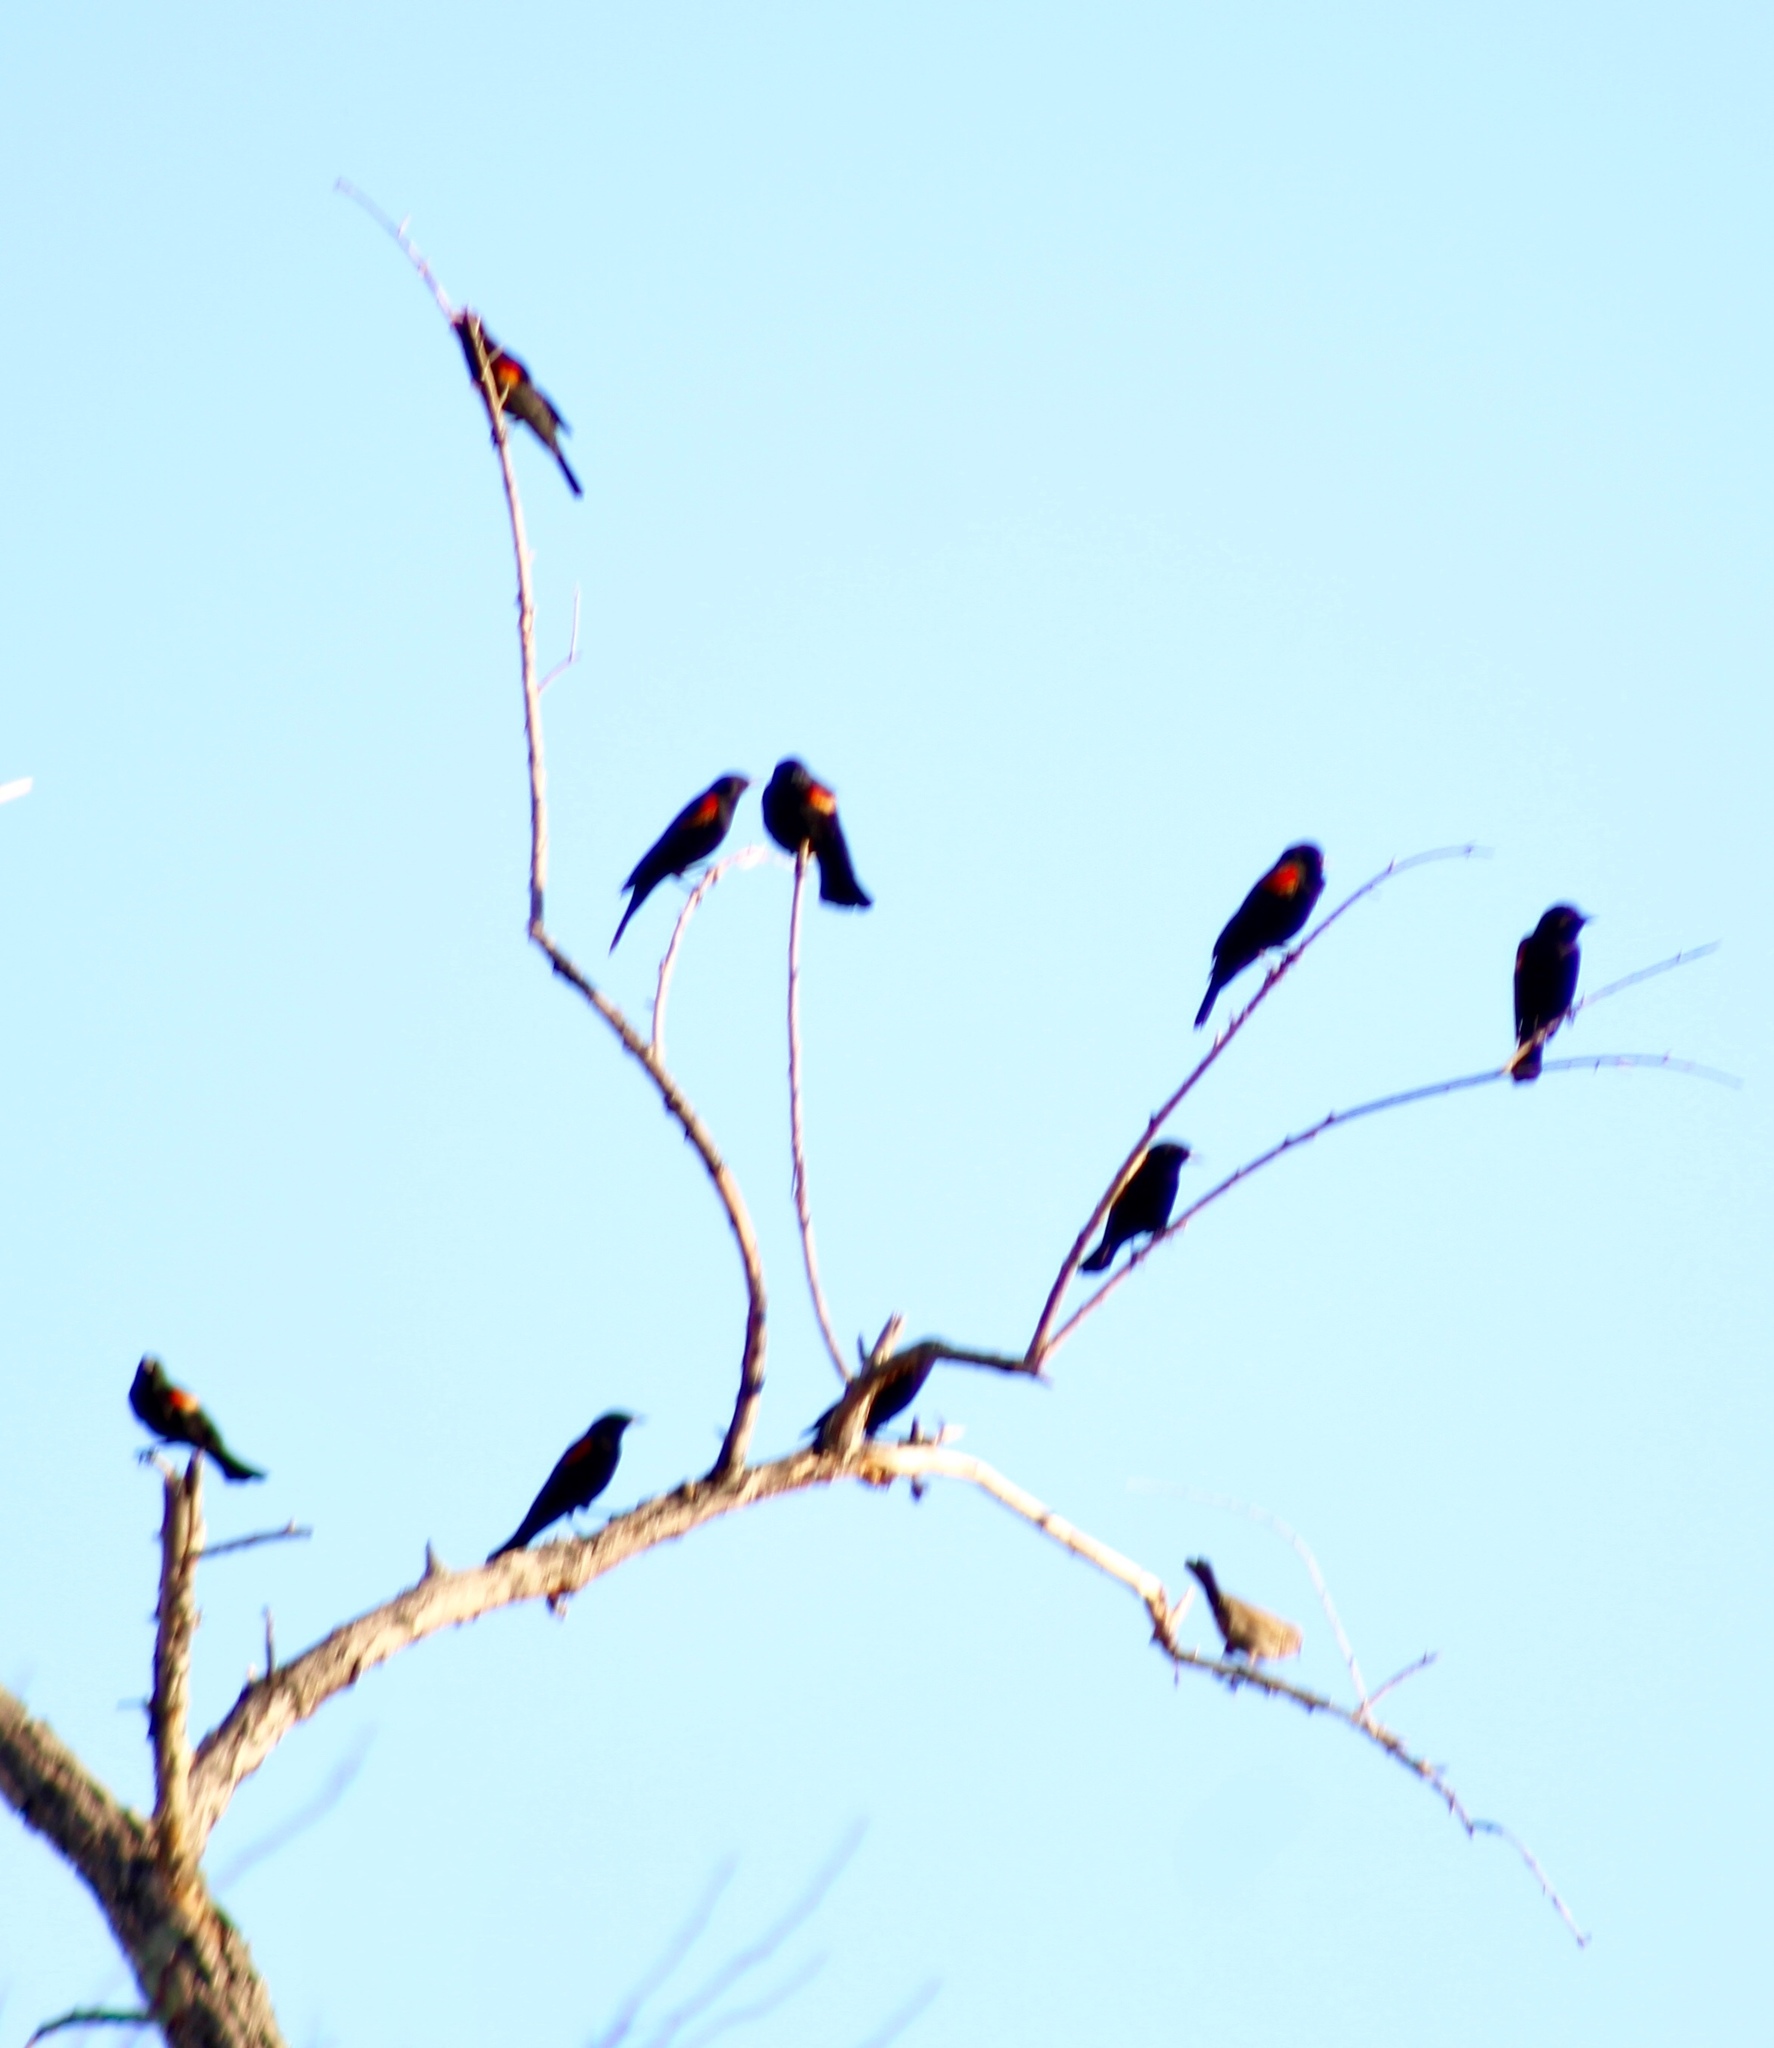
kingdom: Animalia
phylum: Chordata
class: Aves
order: Passeriformes
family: Icteridae
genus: Agelaius
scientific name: Agelaius phoeniceus
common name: Red-winged blackbird
